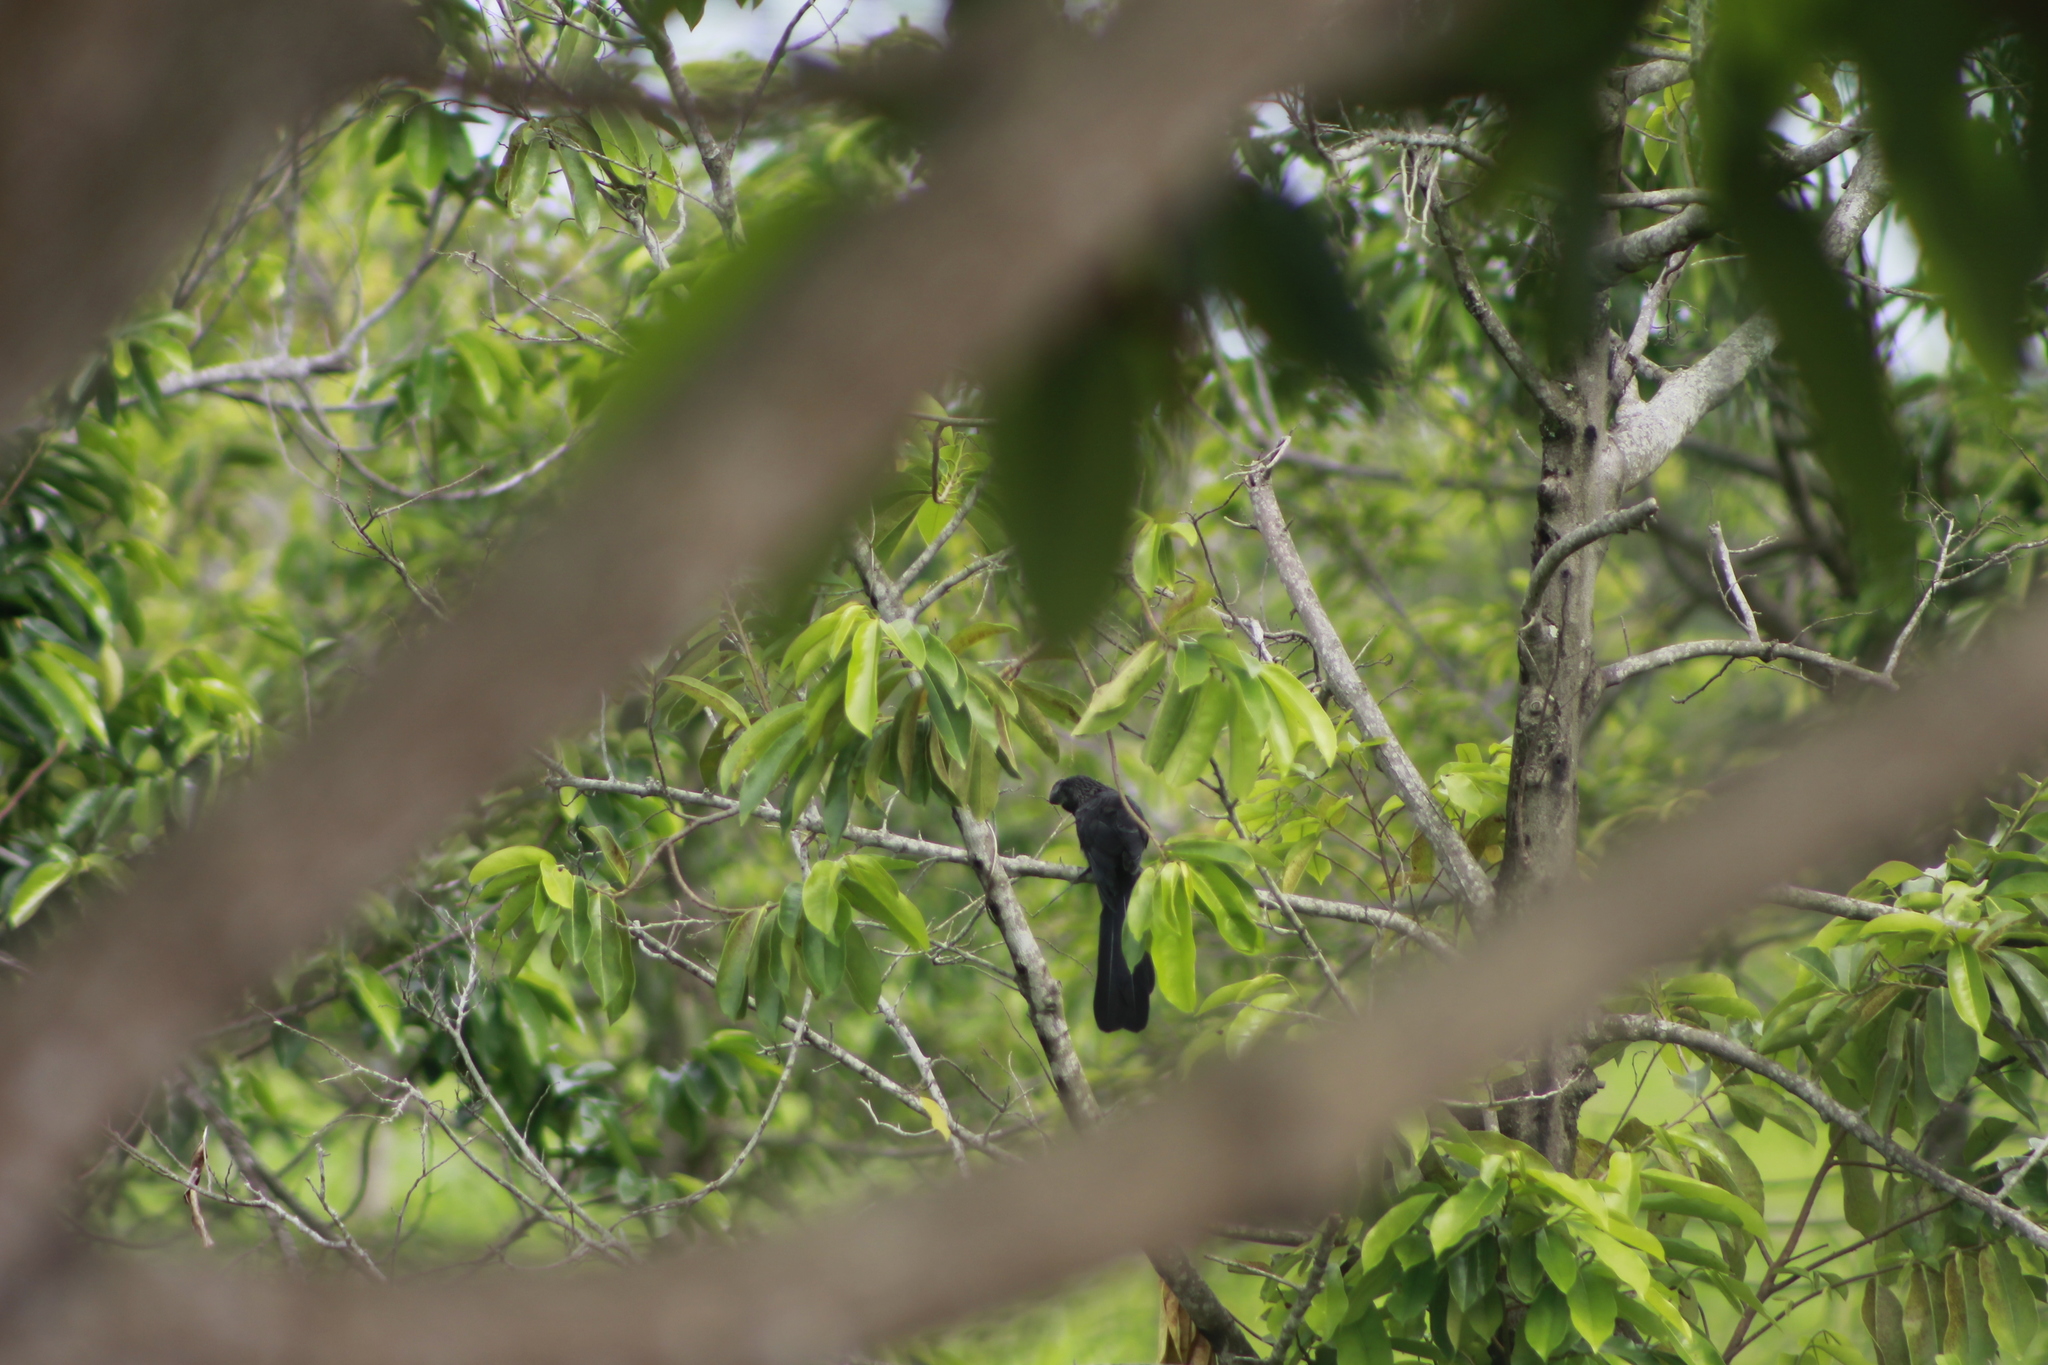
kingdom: Animalia
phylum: Chordata
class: Aves
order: Cuculiformes
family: Cuculidae
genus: Crotophaga
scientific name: Crotophaga ani
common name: Smooth-billed ani
